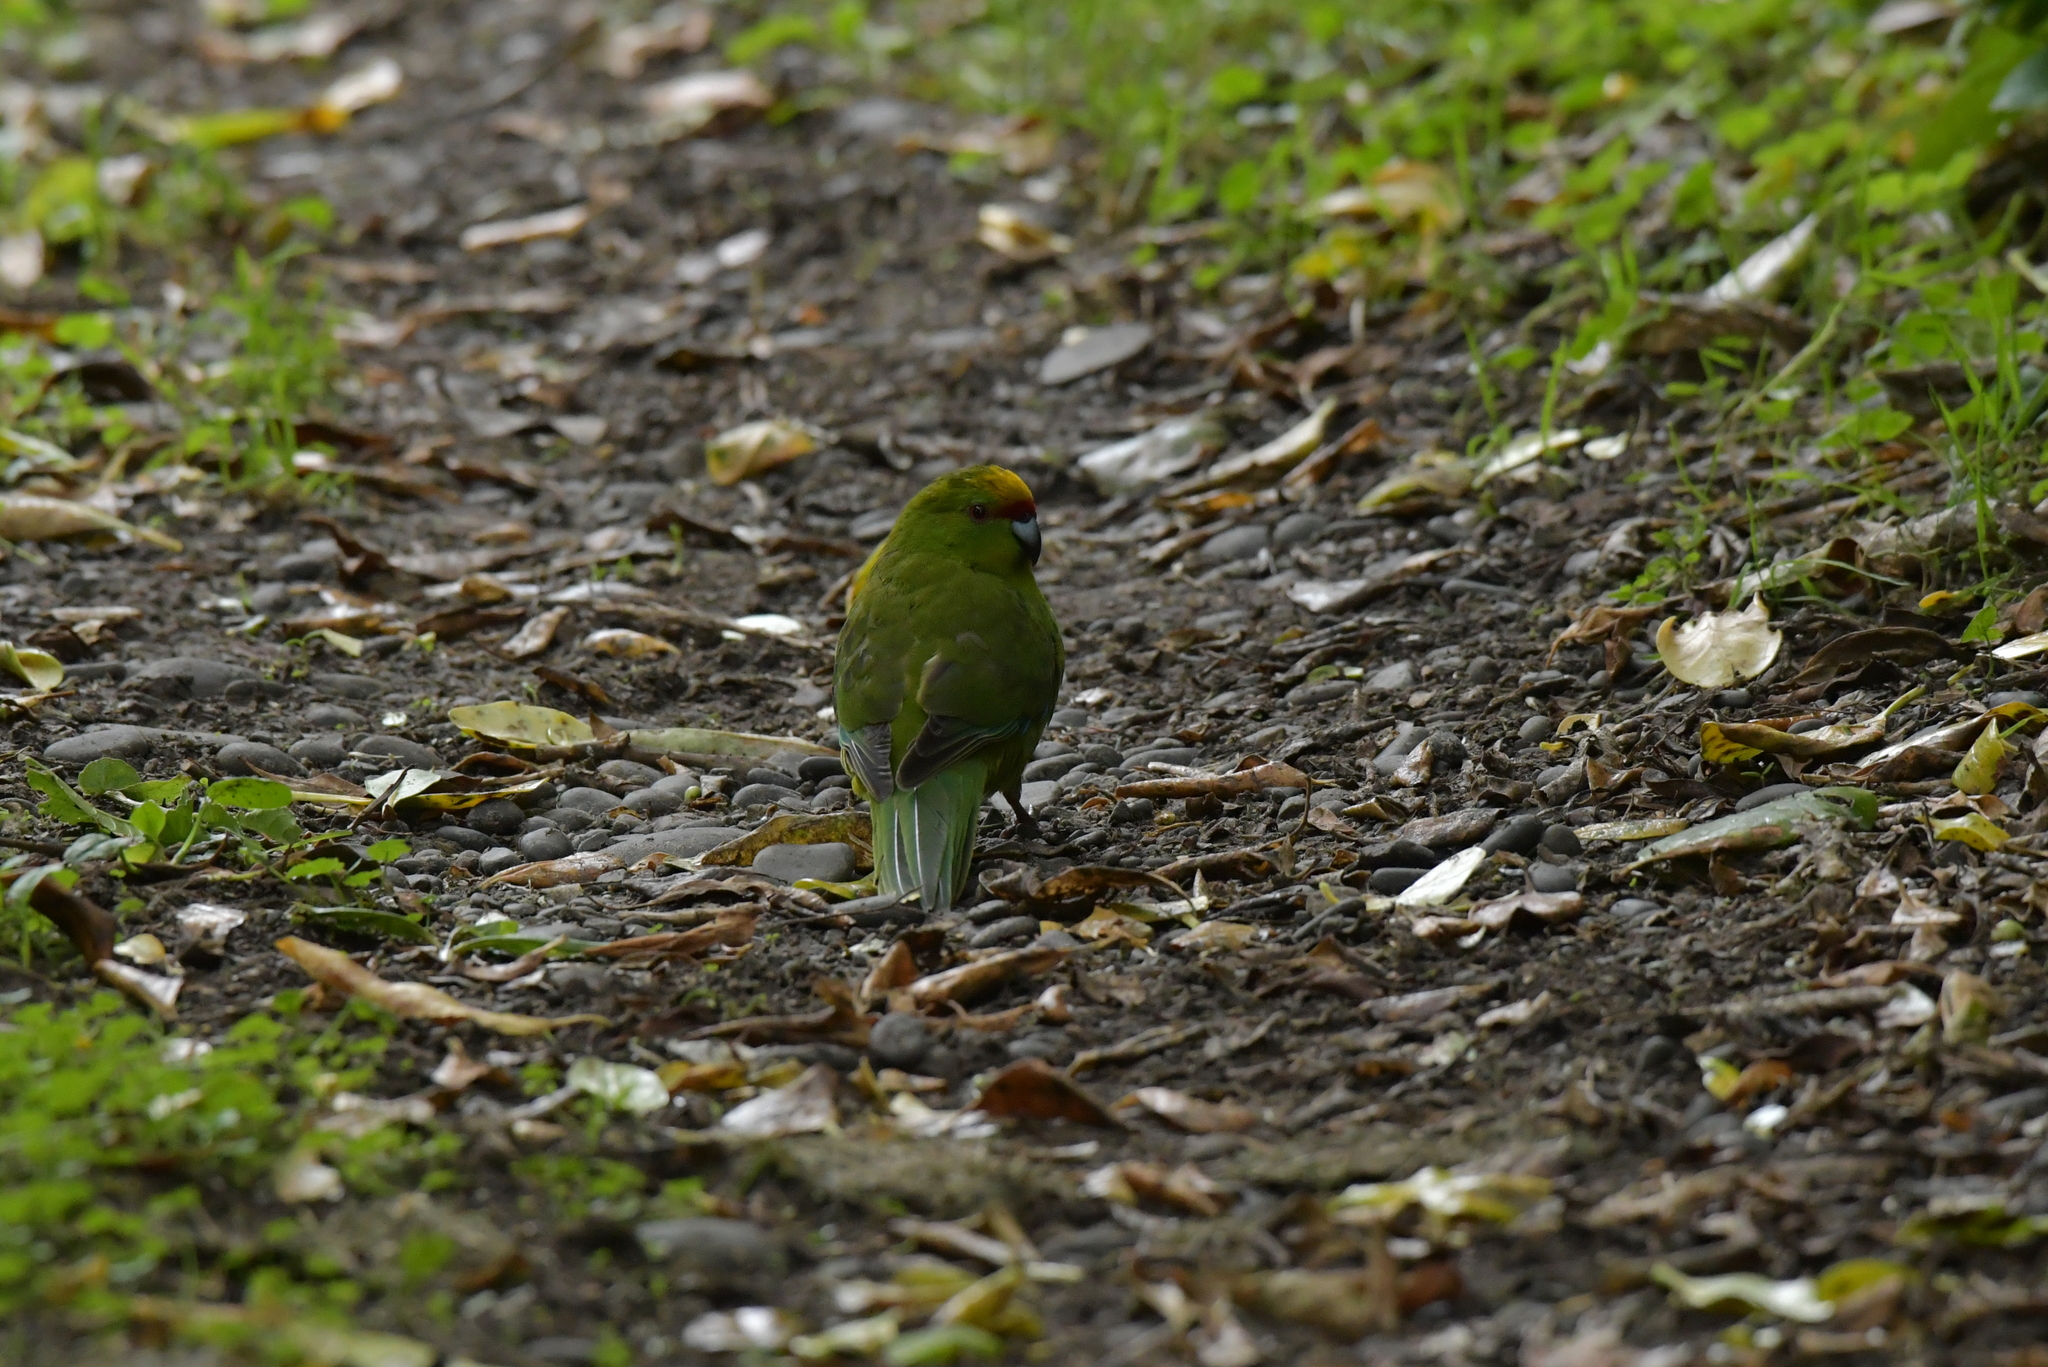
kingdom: Animalia
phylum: Chordata
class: Aves
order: Psittaciformes
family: Psittacidae
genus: Cyanoramphus
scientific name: Cyanoramphus auriceps
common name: Yellow-crowned parakeet
